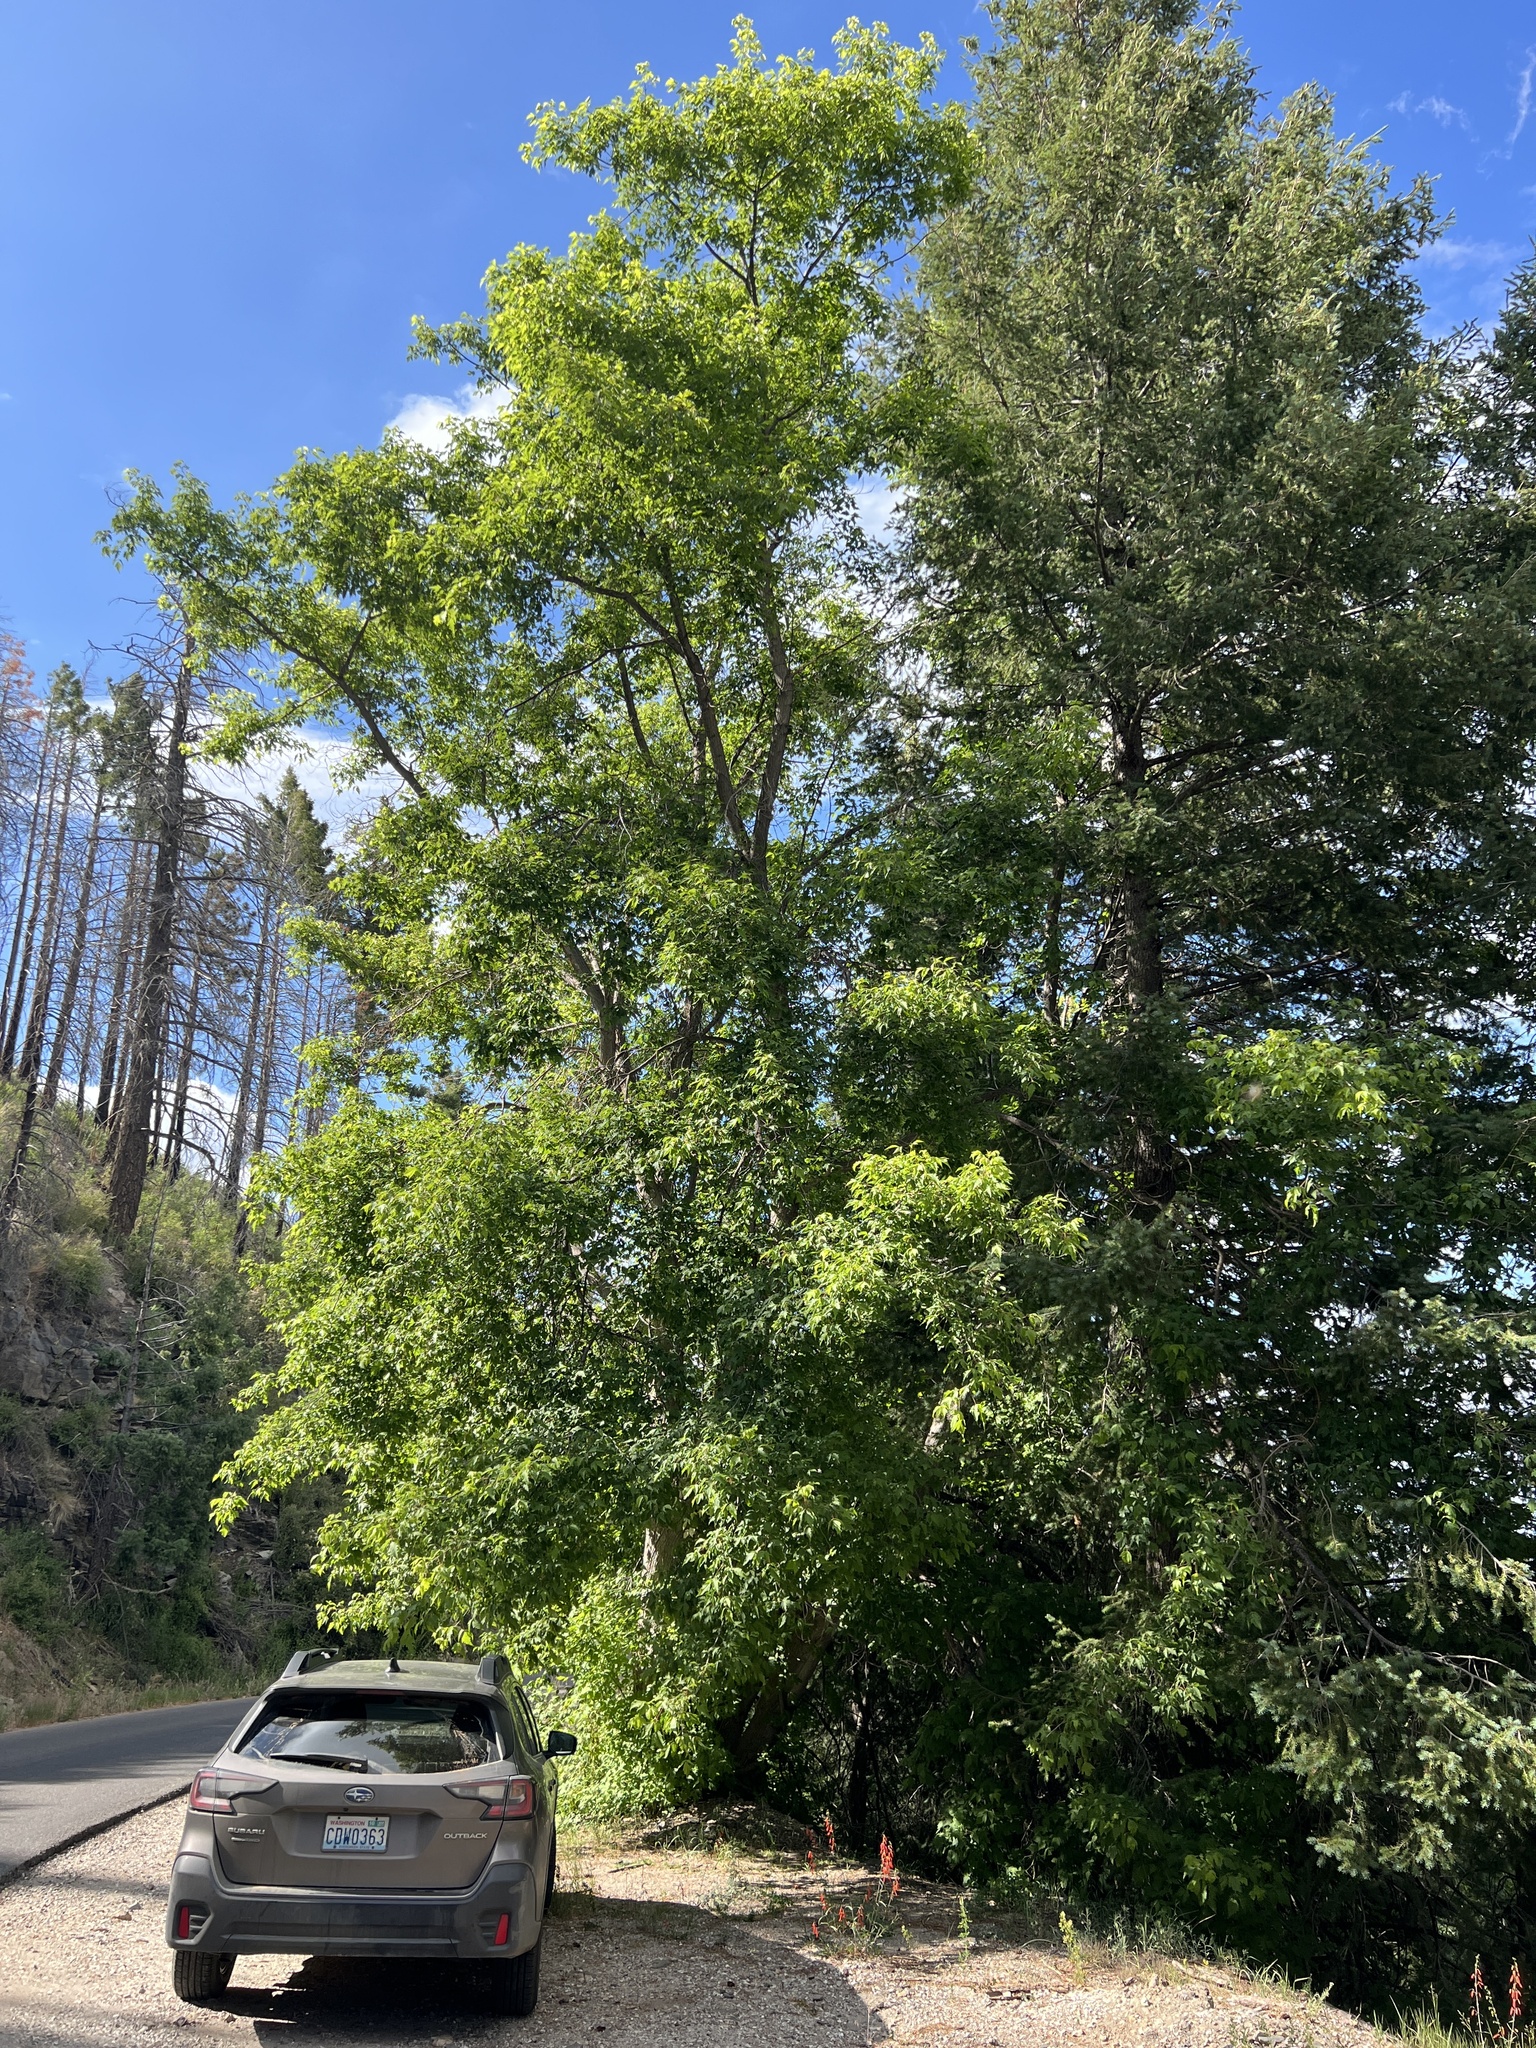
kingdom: Plantae
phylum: Tracheophyta
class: Magnoliopsida
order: Sapindales
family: Sapindaceae
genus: Acer
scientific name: Acer negundo
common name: Ashleaf maple
